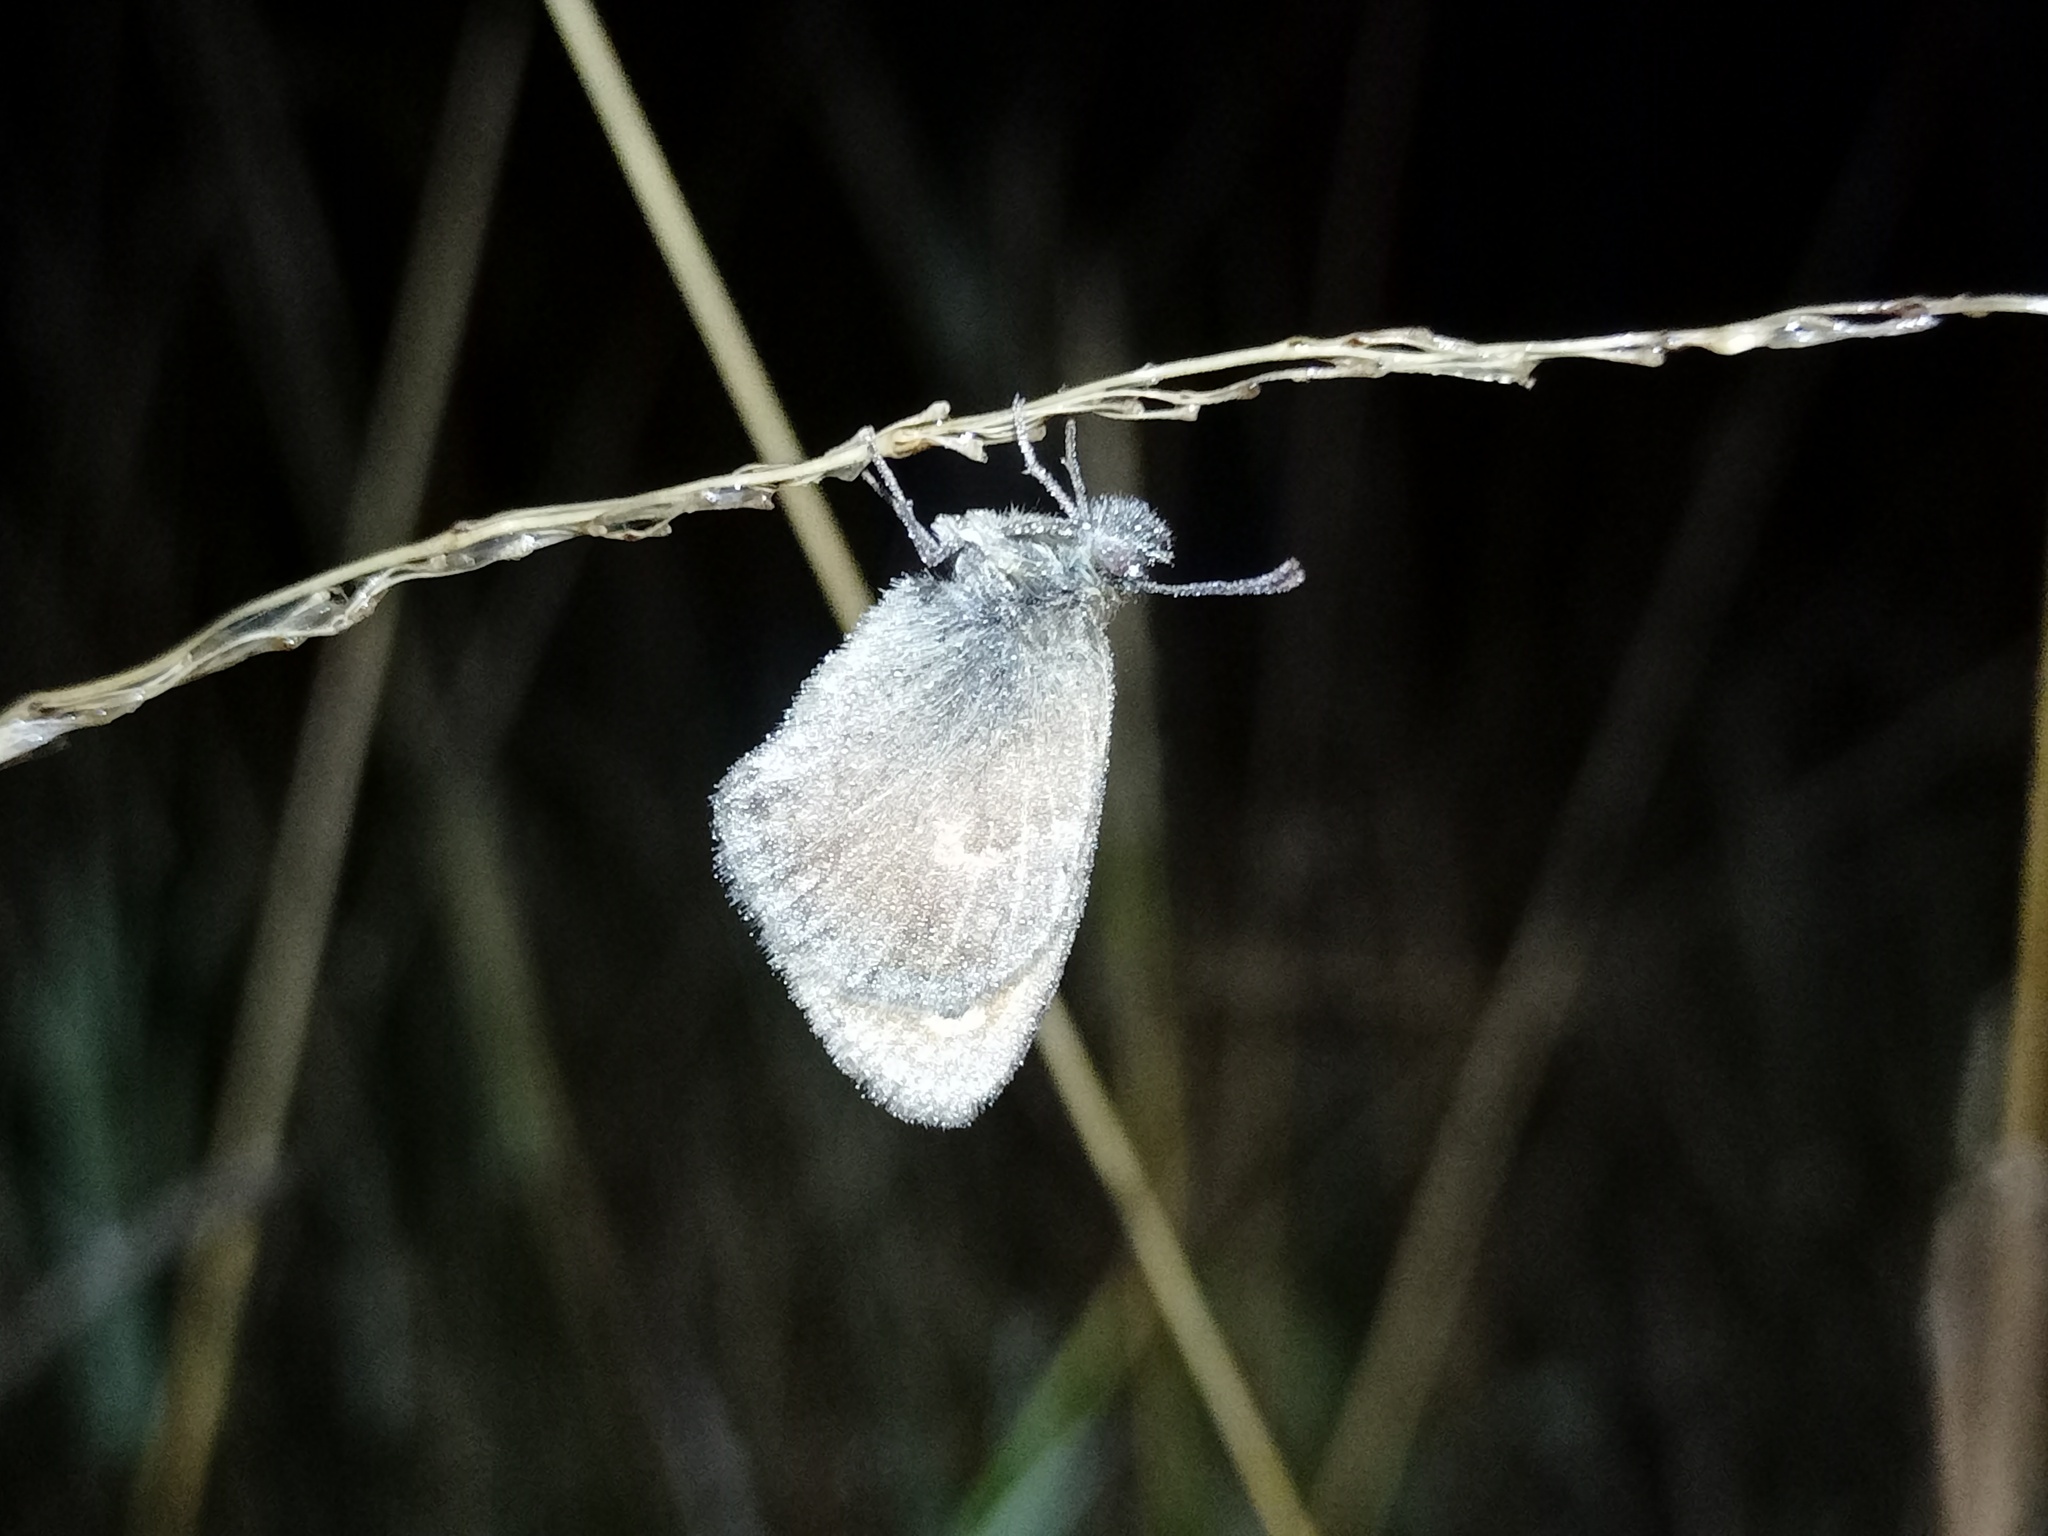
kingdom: Animalia
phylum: Arthropoda
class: Insecta
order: Lepidoptera
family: Nymphalidae
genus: Coenonympha
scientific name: Coenonympha pamphilus
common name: Small heath
